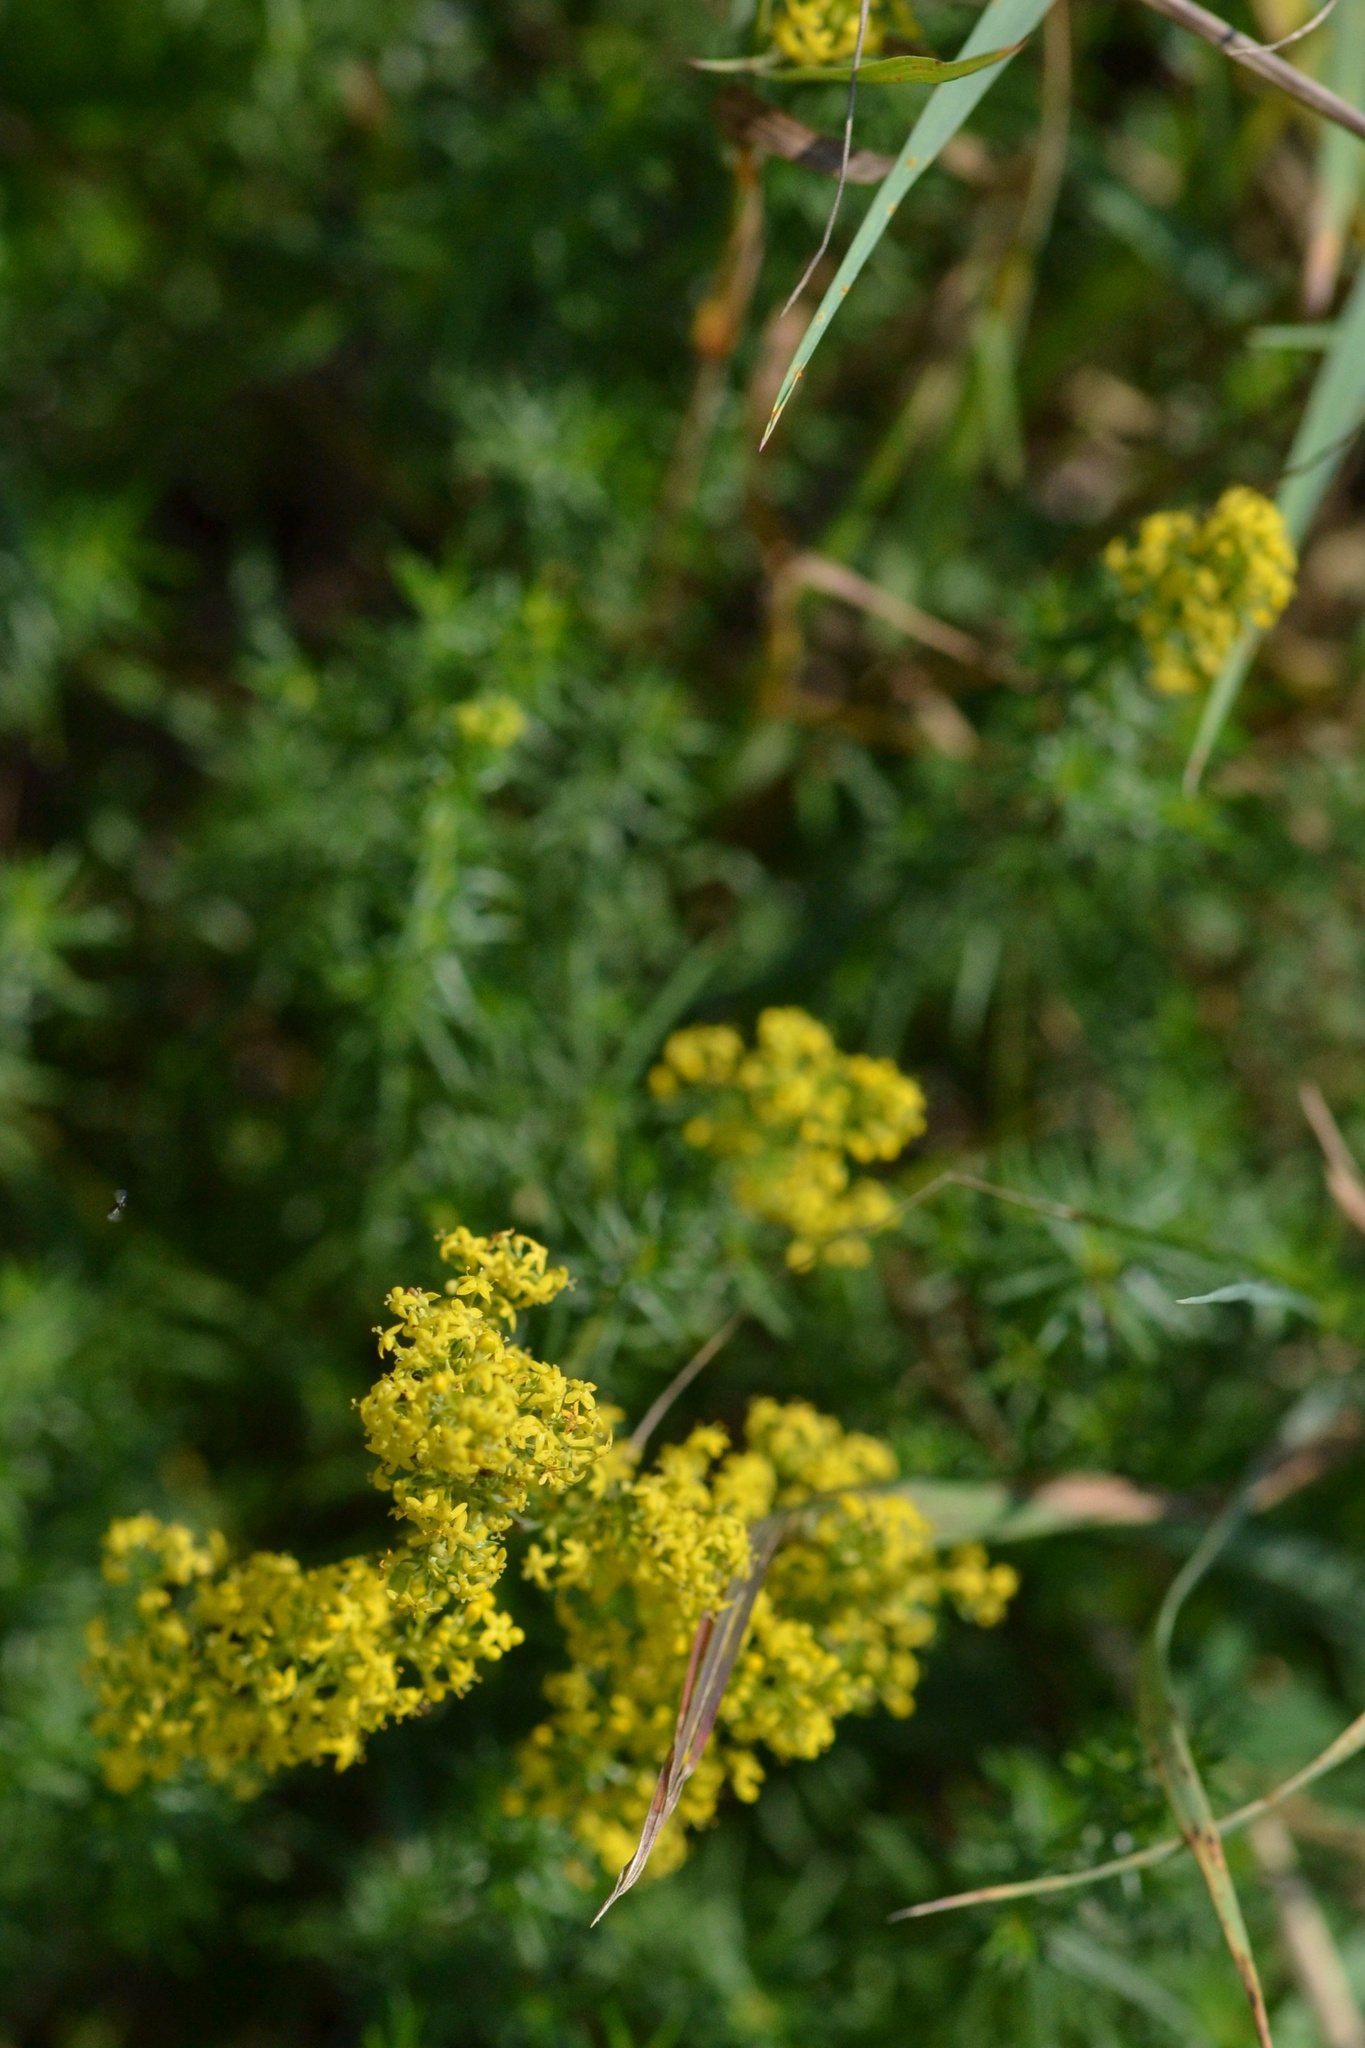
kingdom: Plantae
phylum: Tracheophyta
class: Magnoliopsida
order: Gentianales
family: Rubiaceae
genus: Galium
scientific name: Galium verum
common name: Lady's bedstraw
